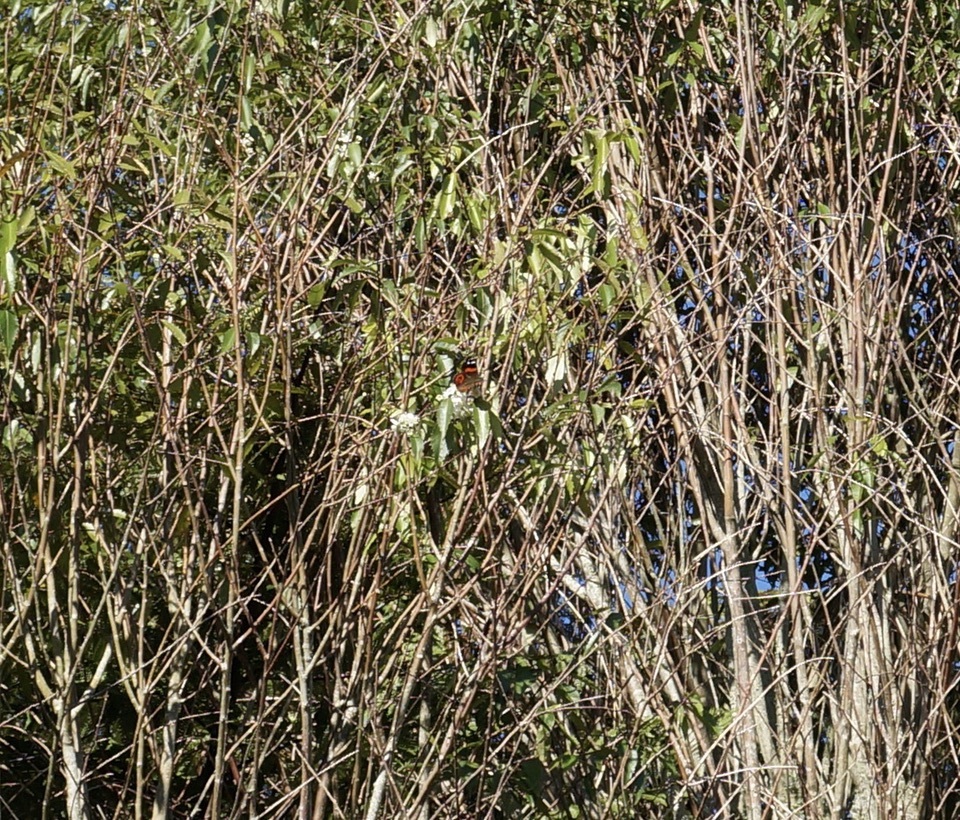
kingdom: Animalia
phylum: Arthropoda
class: Insecta
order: Lepidoptera
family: Nymphalidae
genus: Vanessa
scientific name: Vanessa gonerilla
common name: New zealand red admiral
